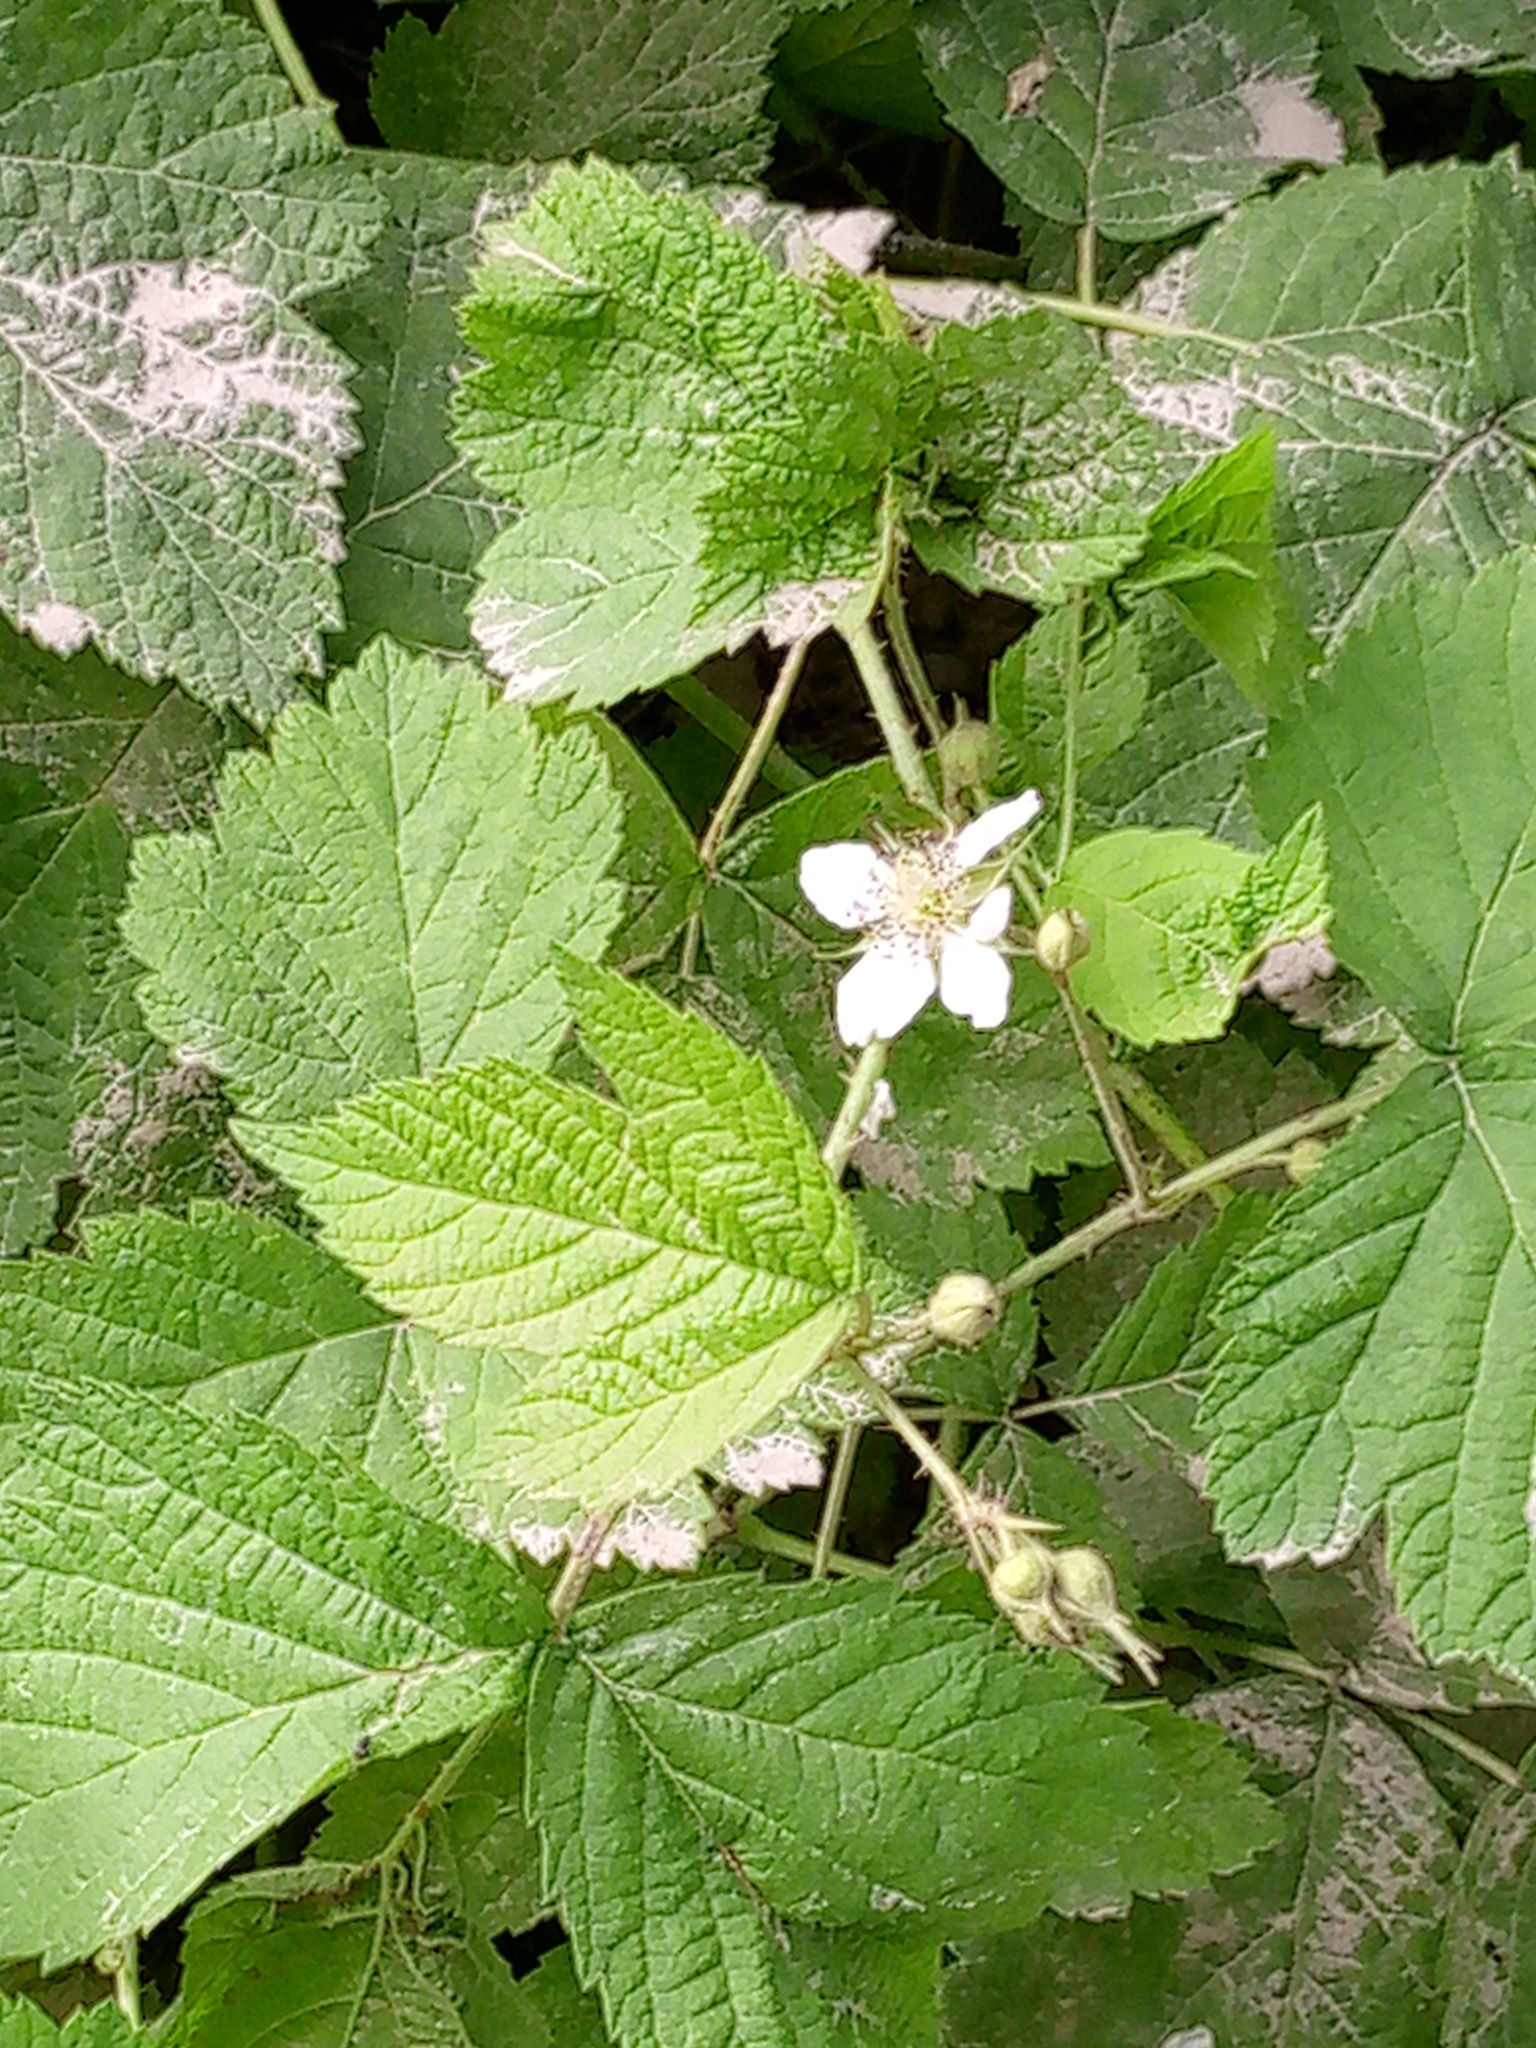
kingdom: Plantae
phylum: Tracheophyta
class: Magnoliopsida
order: Rosales
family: Rosaceae
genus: Rubus
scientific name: Rubus caesius
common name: Dewberry
